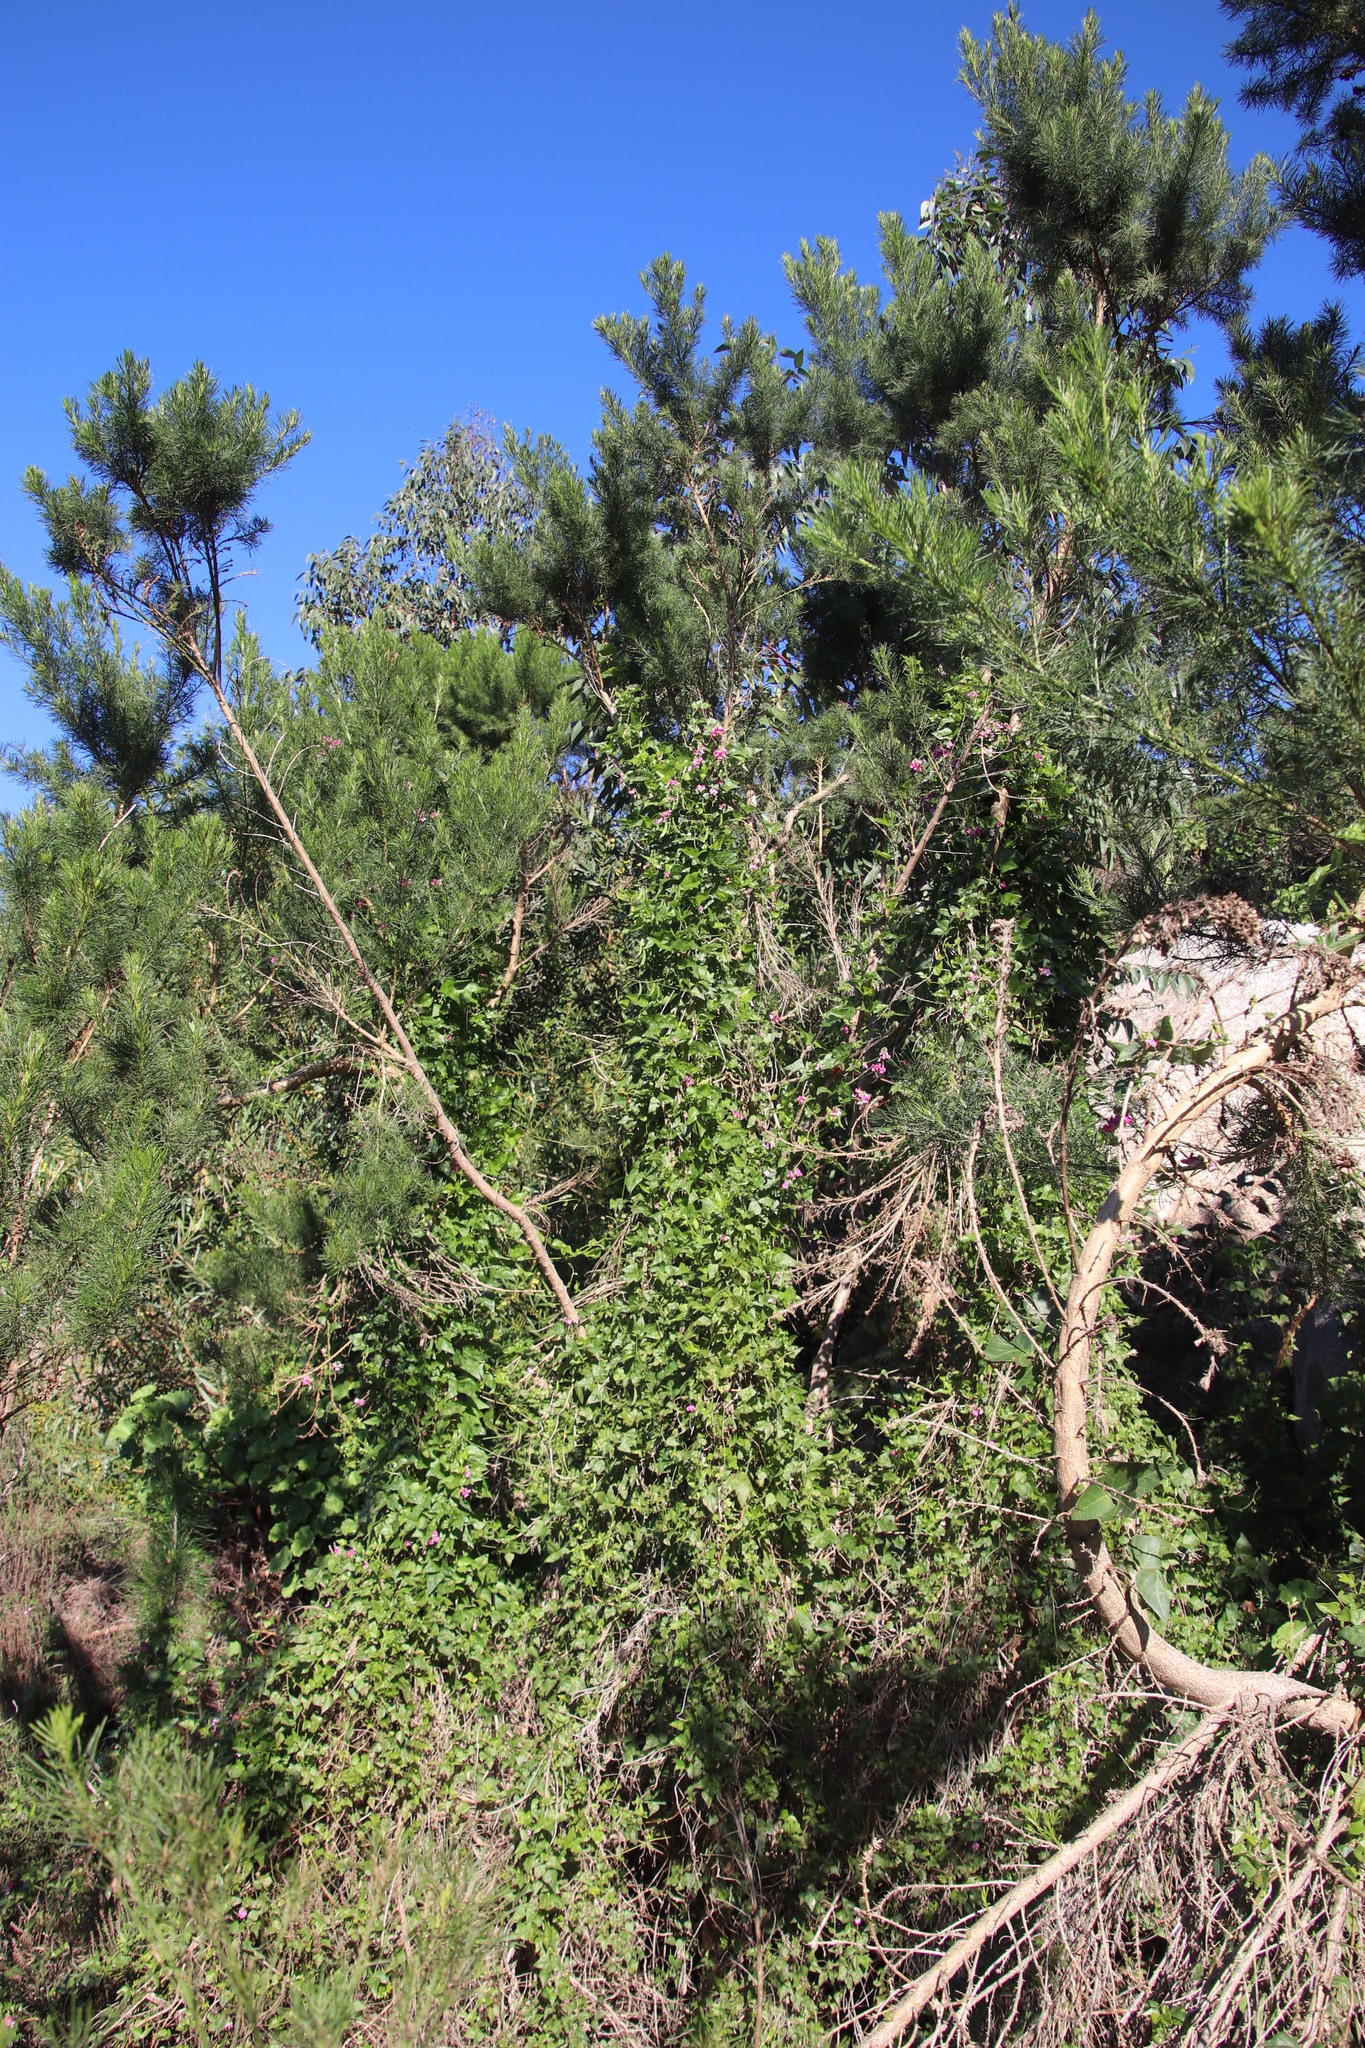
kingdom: Plantae
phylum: Tracheophyta
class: Magnoliopsida
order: Fabales
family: Fabaceae
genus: Dipogon
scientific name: Dipogon lignosus
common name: Okie bean
